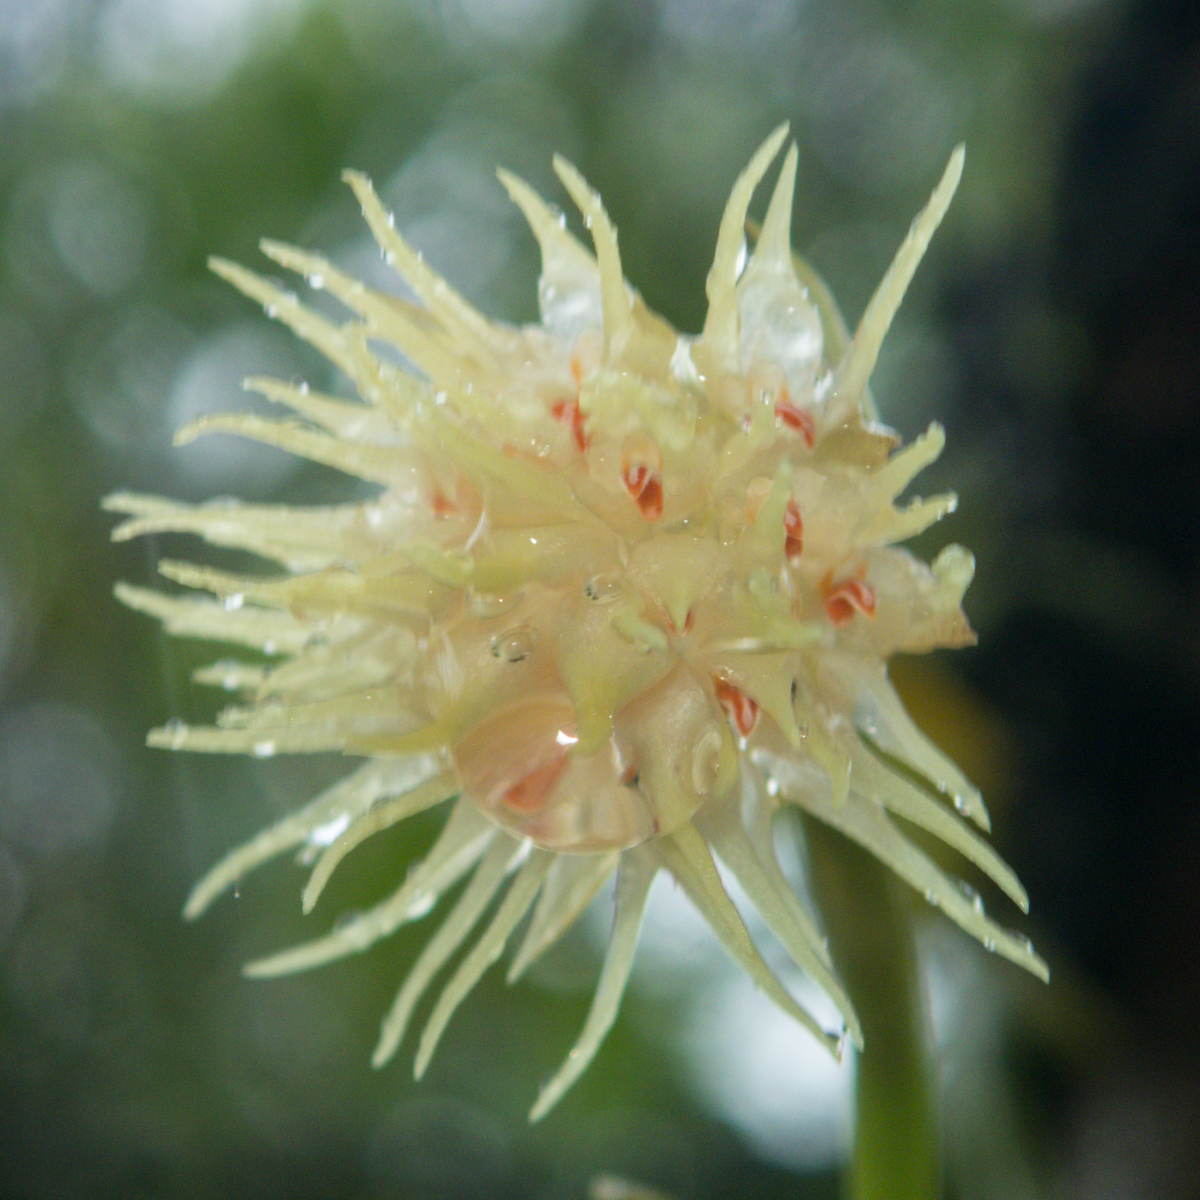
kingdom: Plantae
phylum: Tracheophyta
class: Liliopsida
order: Asparagales
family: Orchidaceae
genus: Bulbophyllum
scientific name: Bulbophyllum odoratissimum
